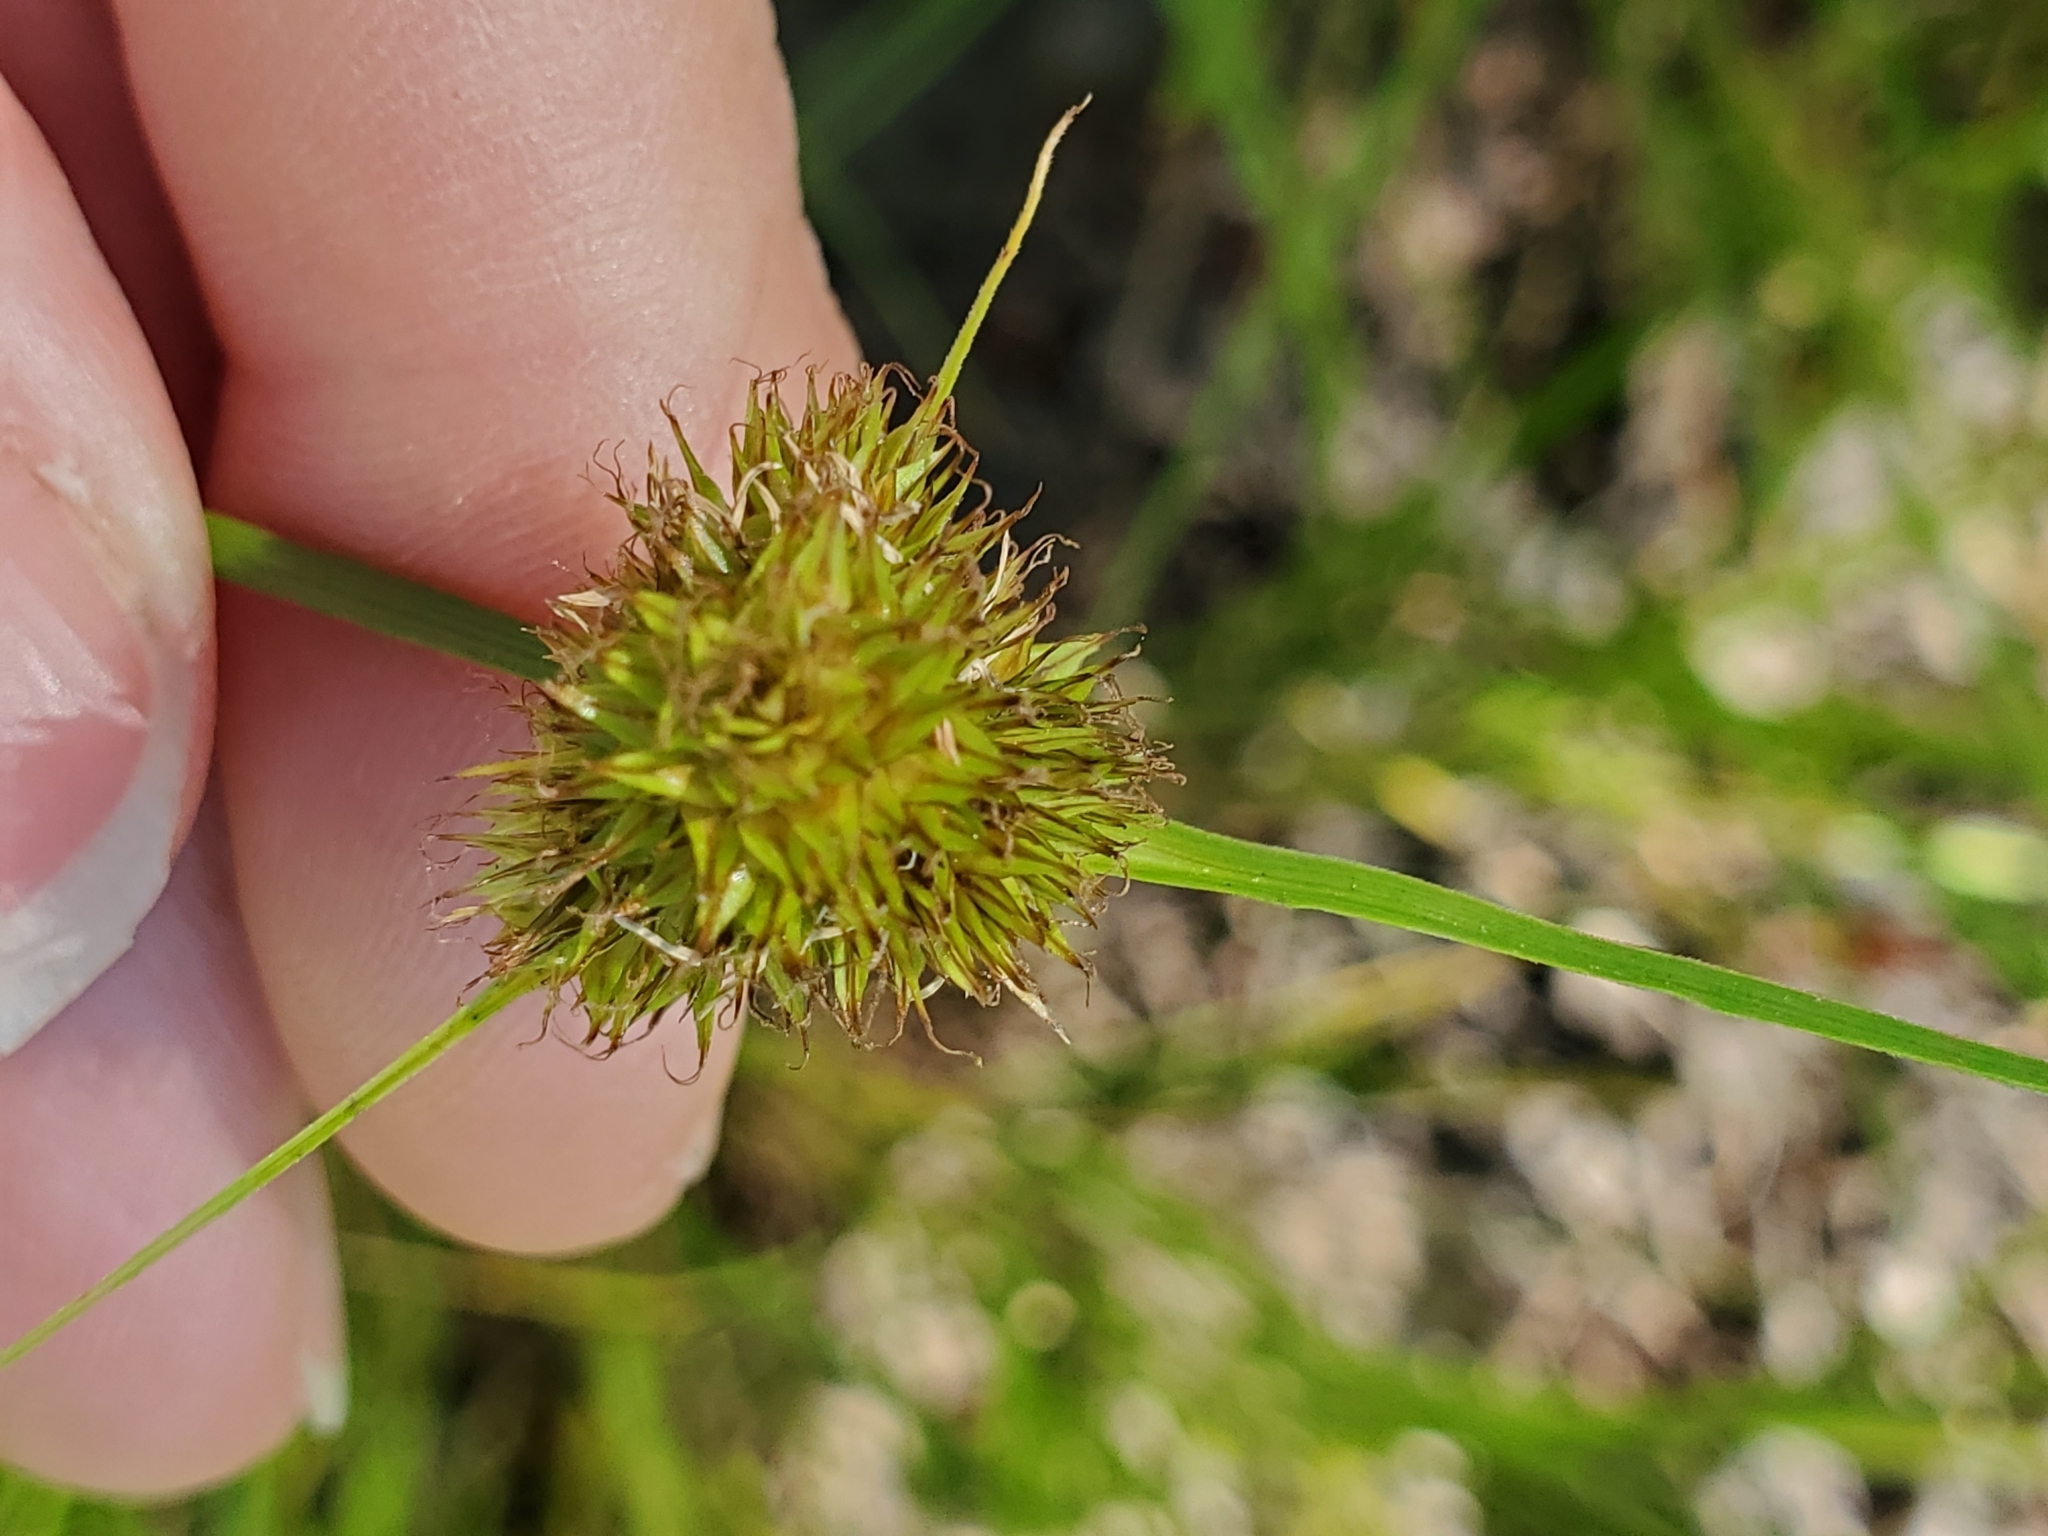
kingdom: Plantae
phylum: Tracheophyta
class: Liliopsida
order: Poales
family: Cyperaceae
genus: Carex
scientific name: Carex unilateralis
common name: Lateral sedge
